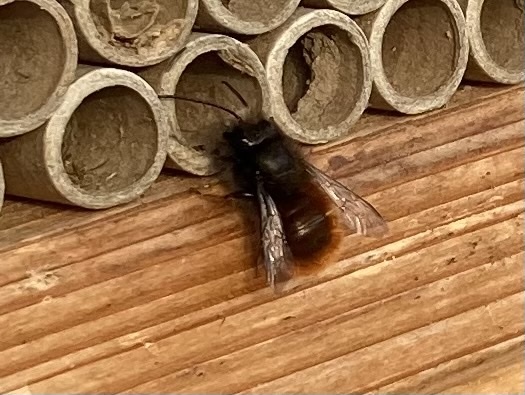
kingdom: Animalia
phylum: Arthropoda
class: Insecta
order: Hymenoptera
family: Megachilidae
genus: Osmia
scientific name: Osmia cornuta
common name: Mason bee
